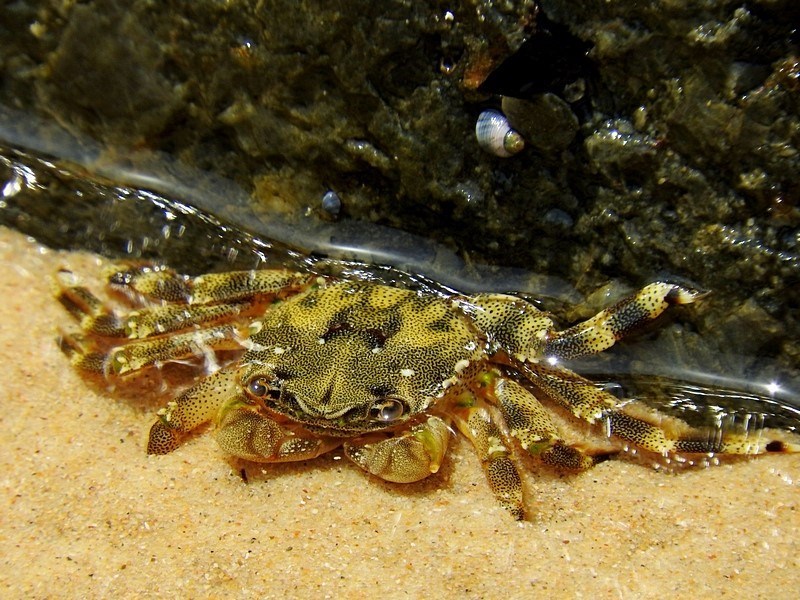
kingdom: Animalia
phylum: Arthropoda
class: Malacostraca
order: Decapoda
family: Plagusiidae
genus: Davusia
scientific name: Davusia glabra
